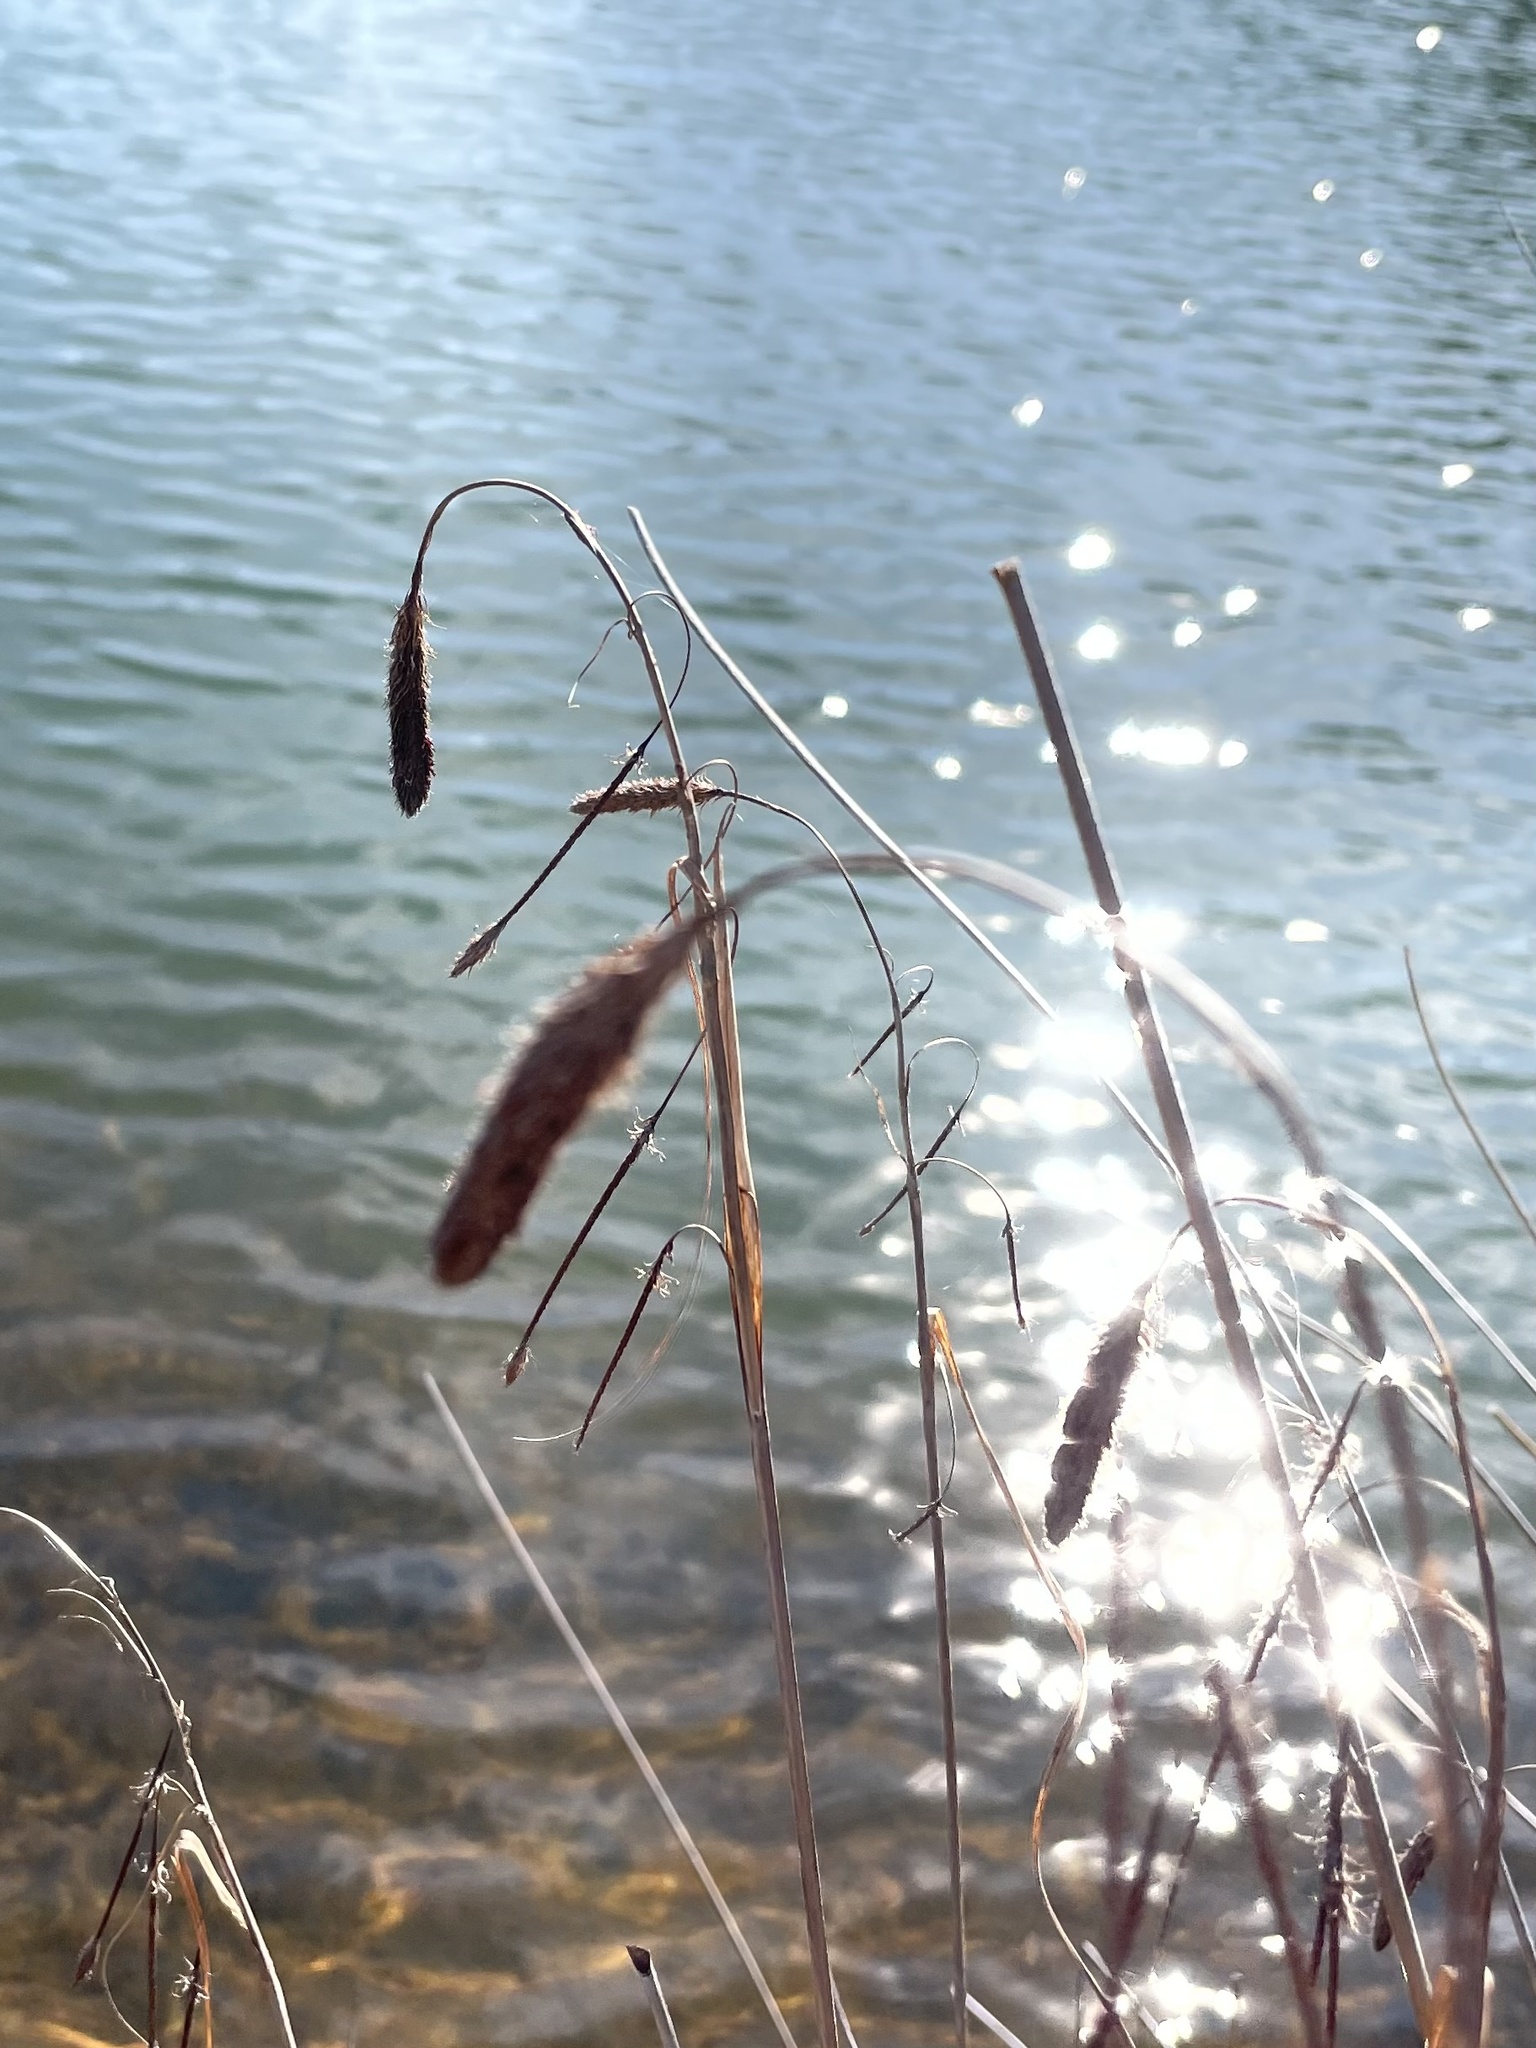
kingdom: Plantae
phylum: Tracheophyta
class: Liliopsida
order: Poales
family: Cyperaceae
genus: Carex
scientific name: Carex crinita
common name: Fringed sedge
